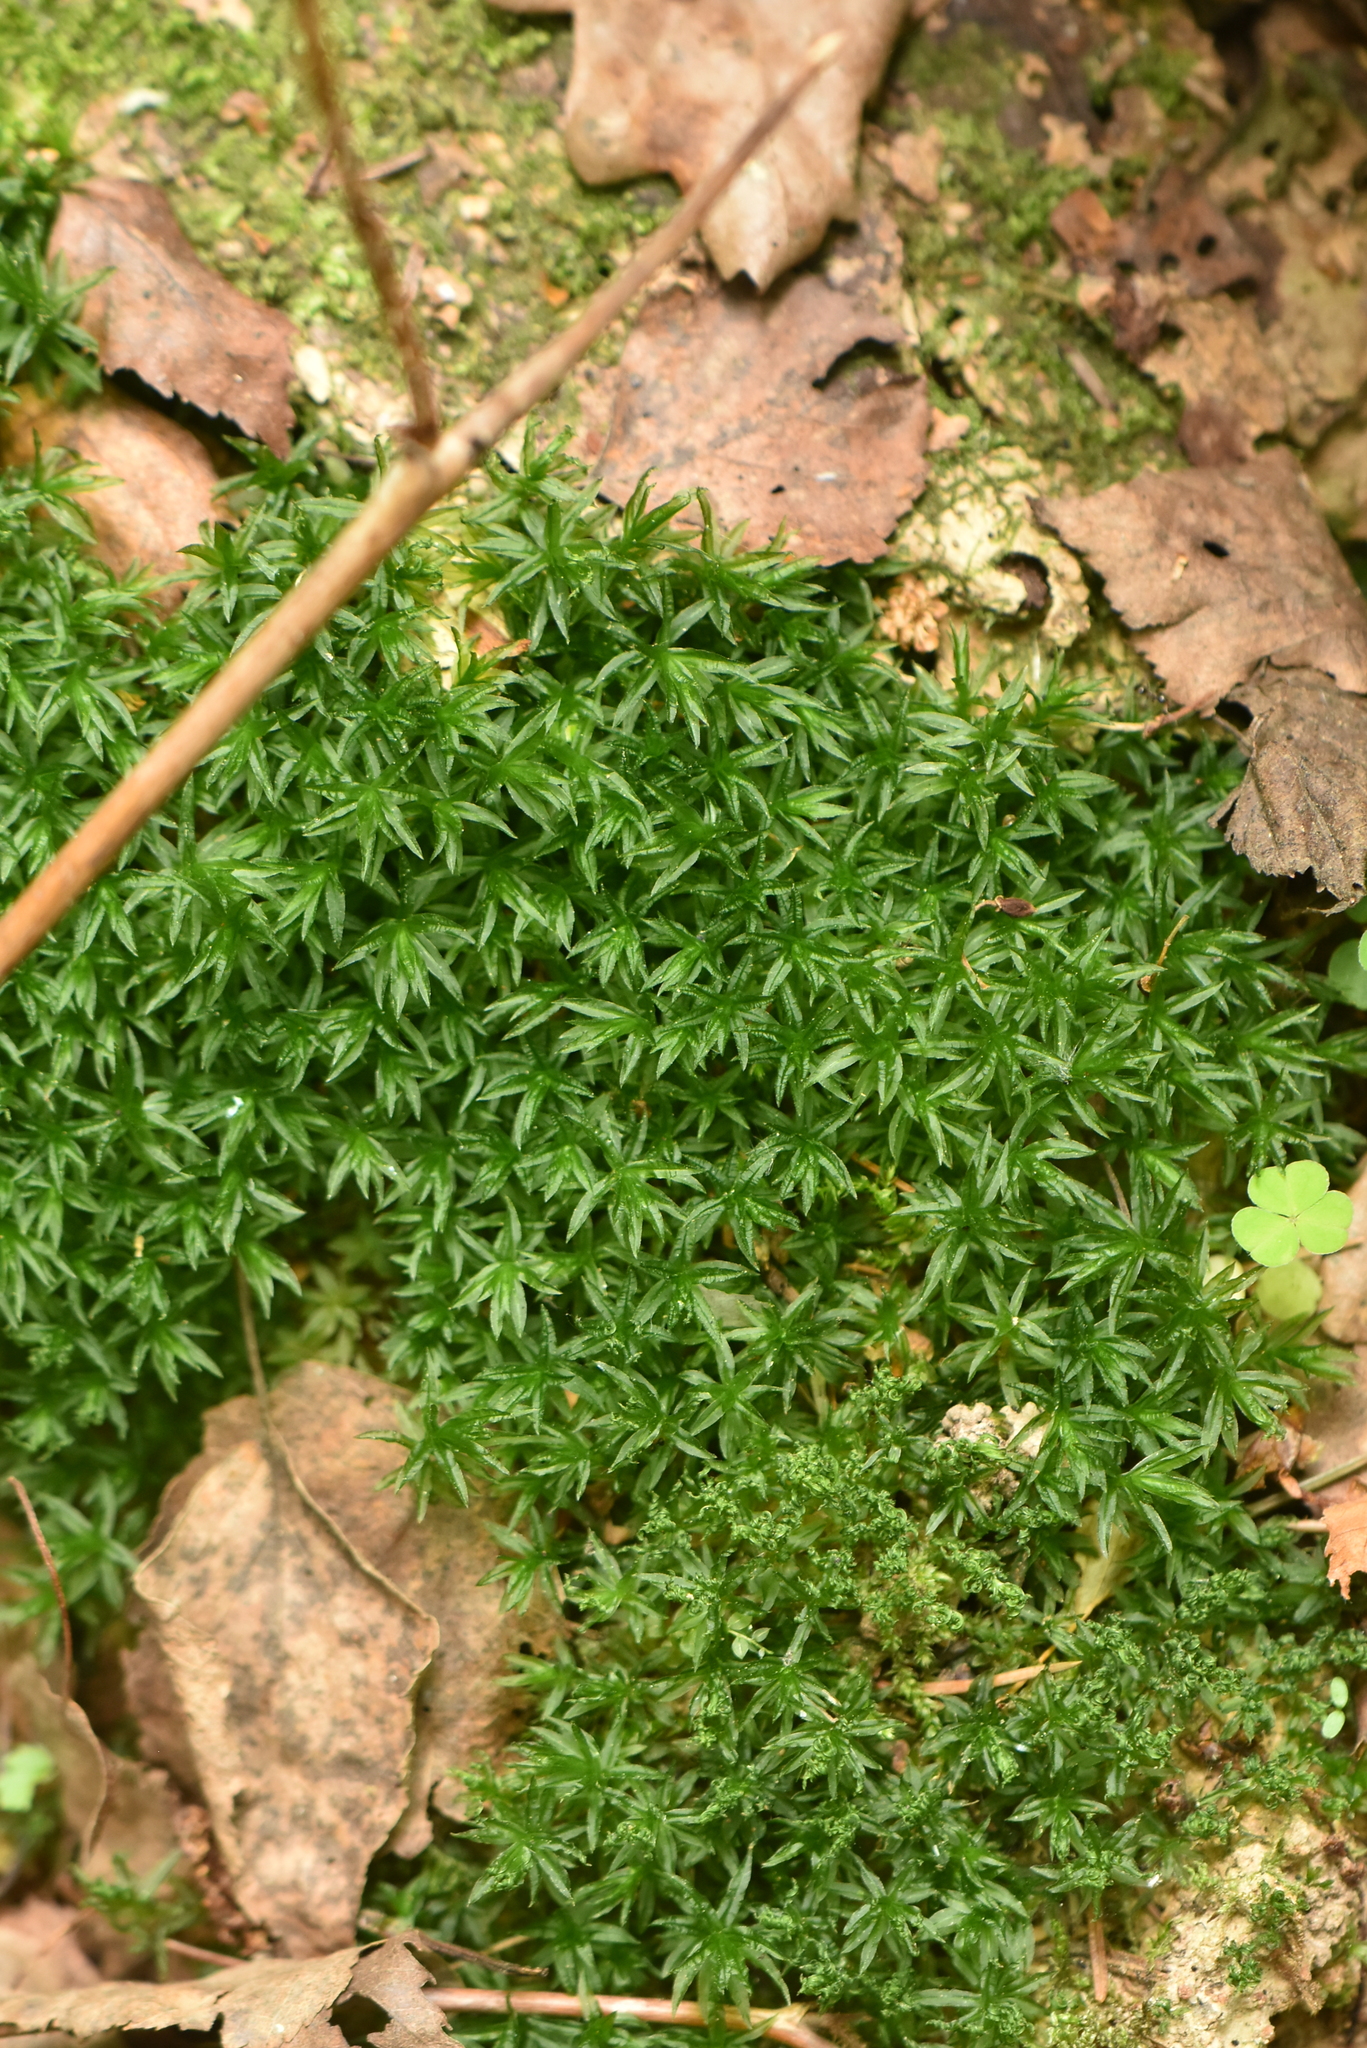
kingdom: Plantae
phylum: Bryophyta
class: Polytrichopsida
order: Polytrichales
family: Polytrichaceae
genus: Atrichum
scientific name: Atrichum undulatum
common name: Common smoothcap
